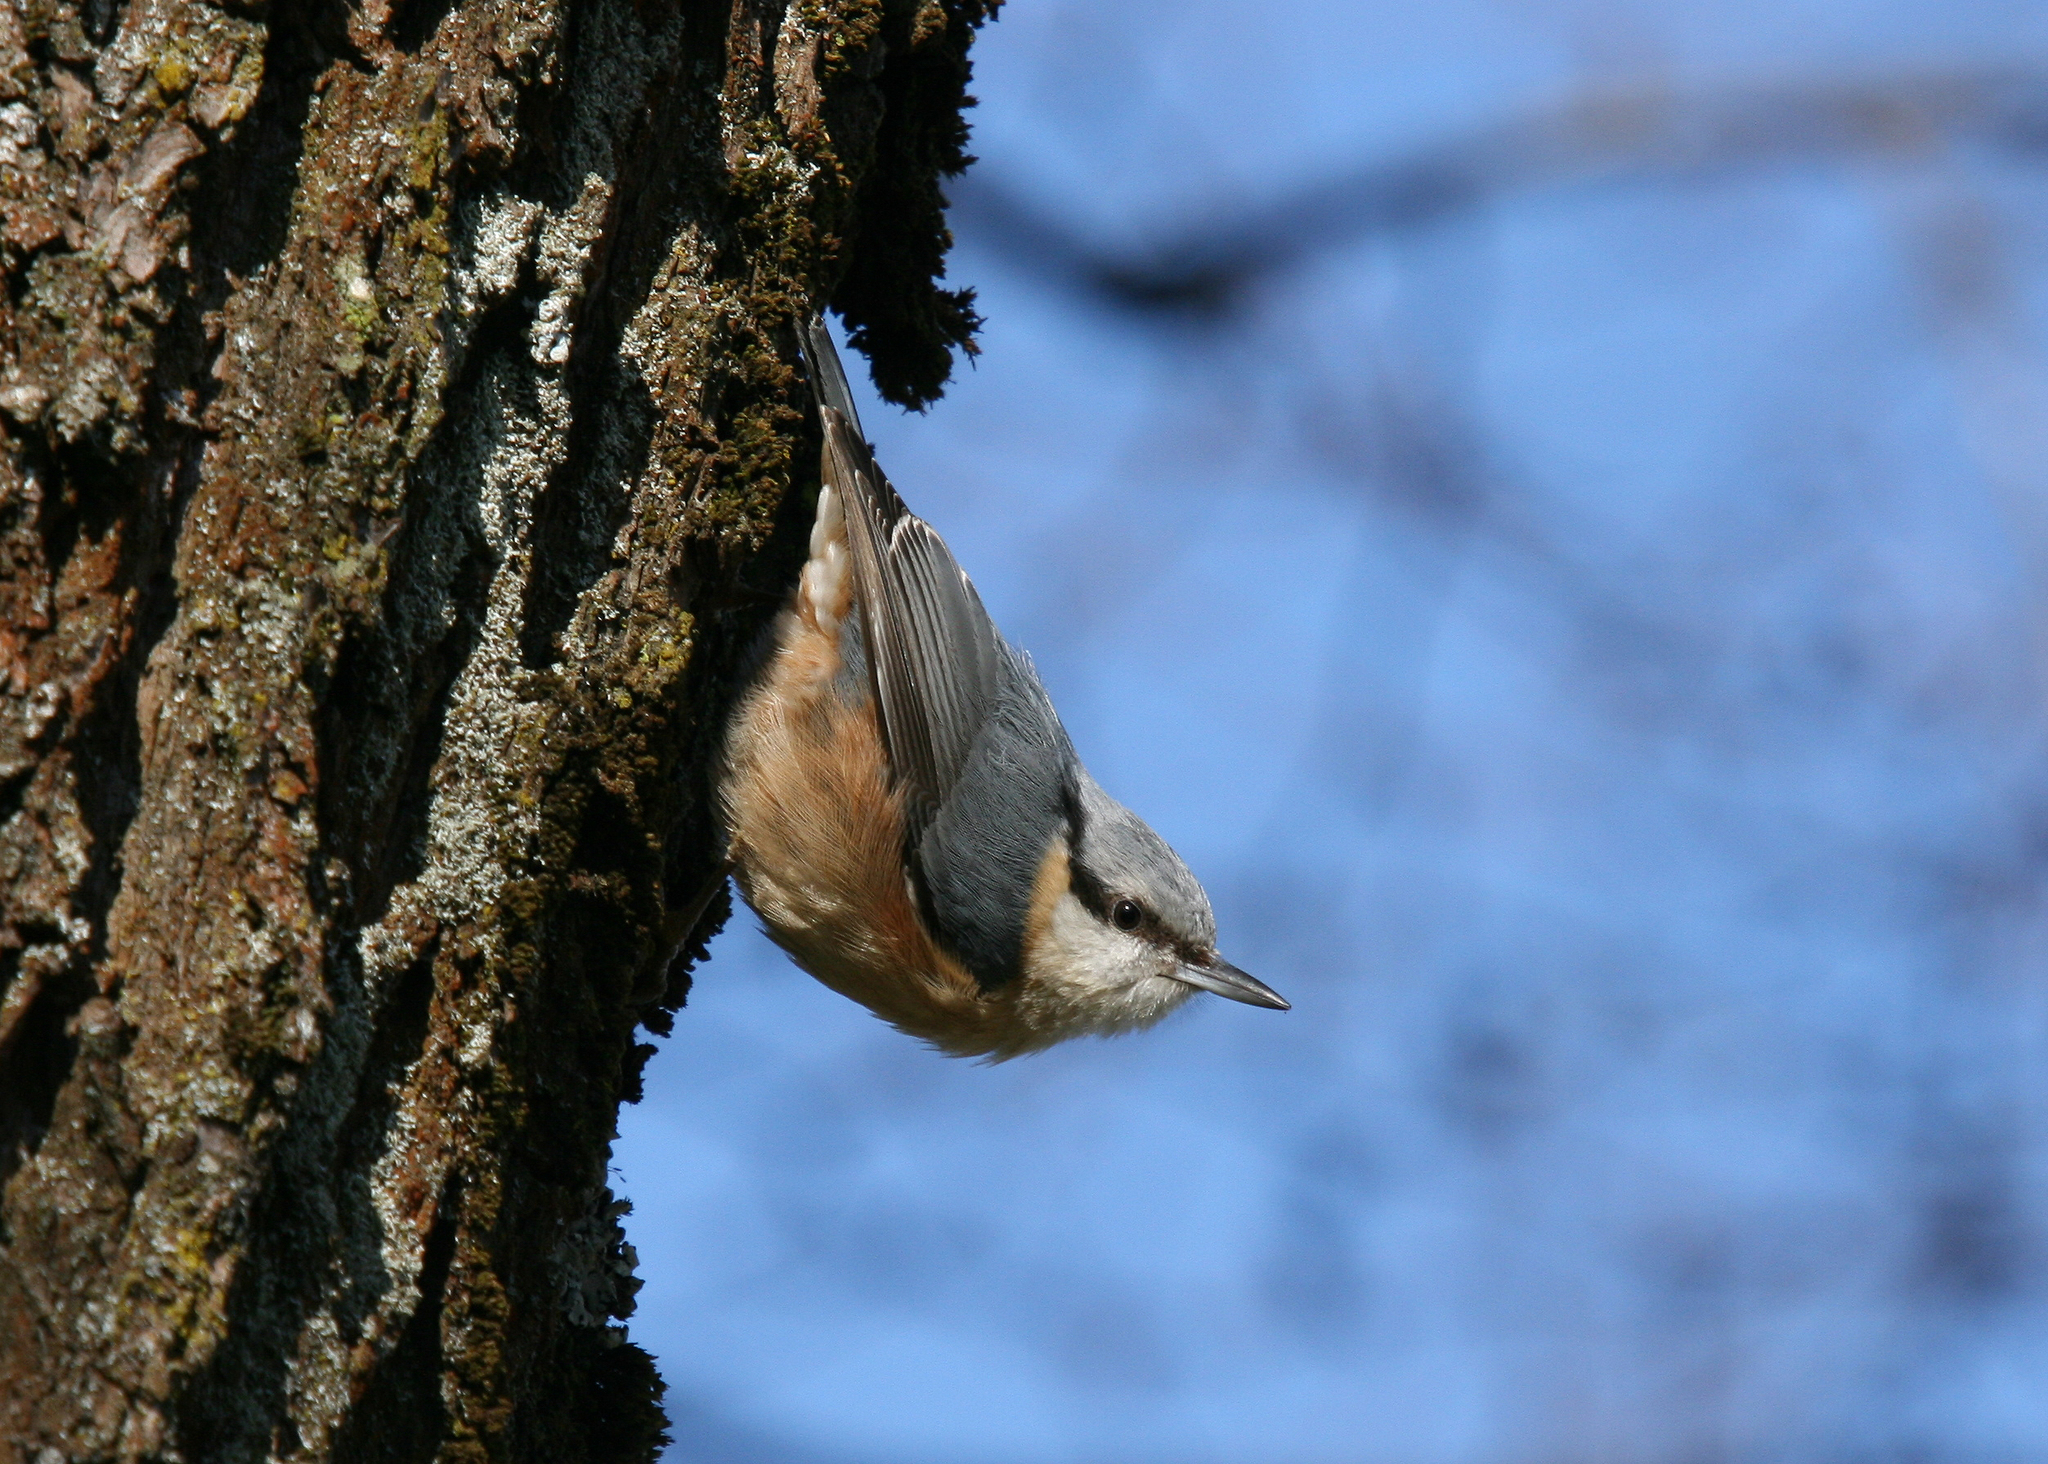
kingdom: Animalia
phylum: Chordata
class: Aves
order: Passeriformes
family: Sittidae
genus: Sitta
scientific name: Sitta europaea
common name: Eurasian nuthatch
